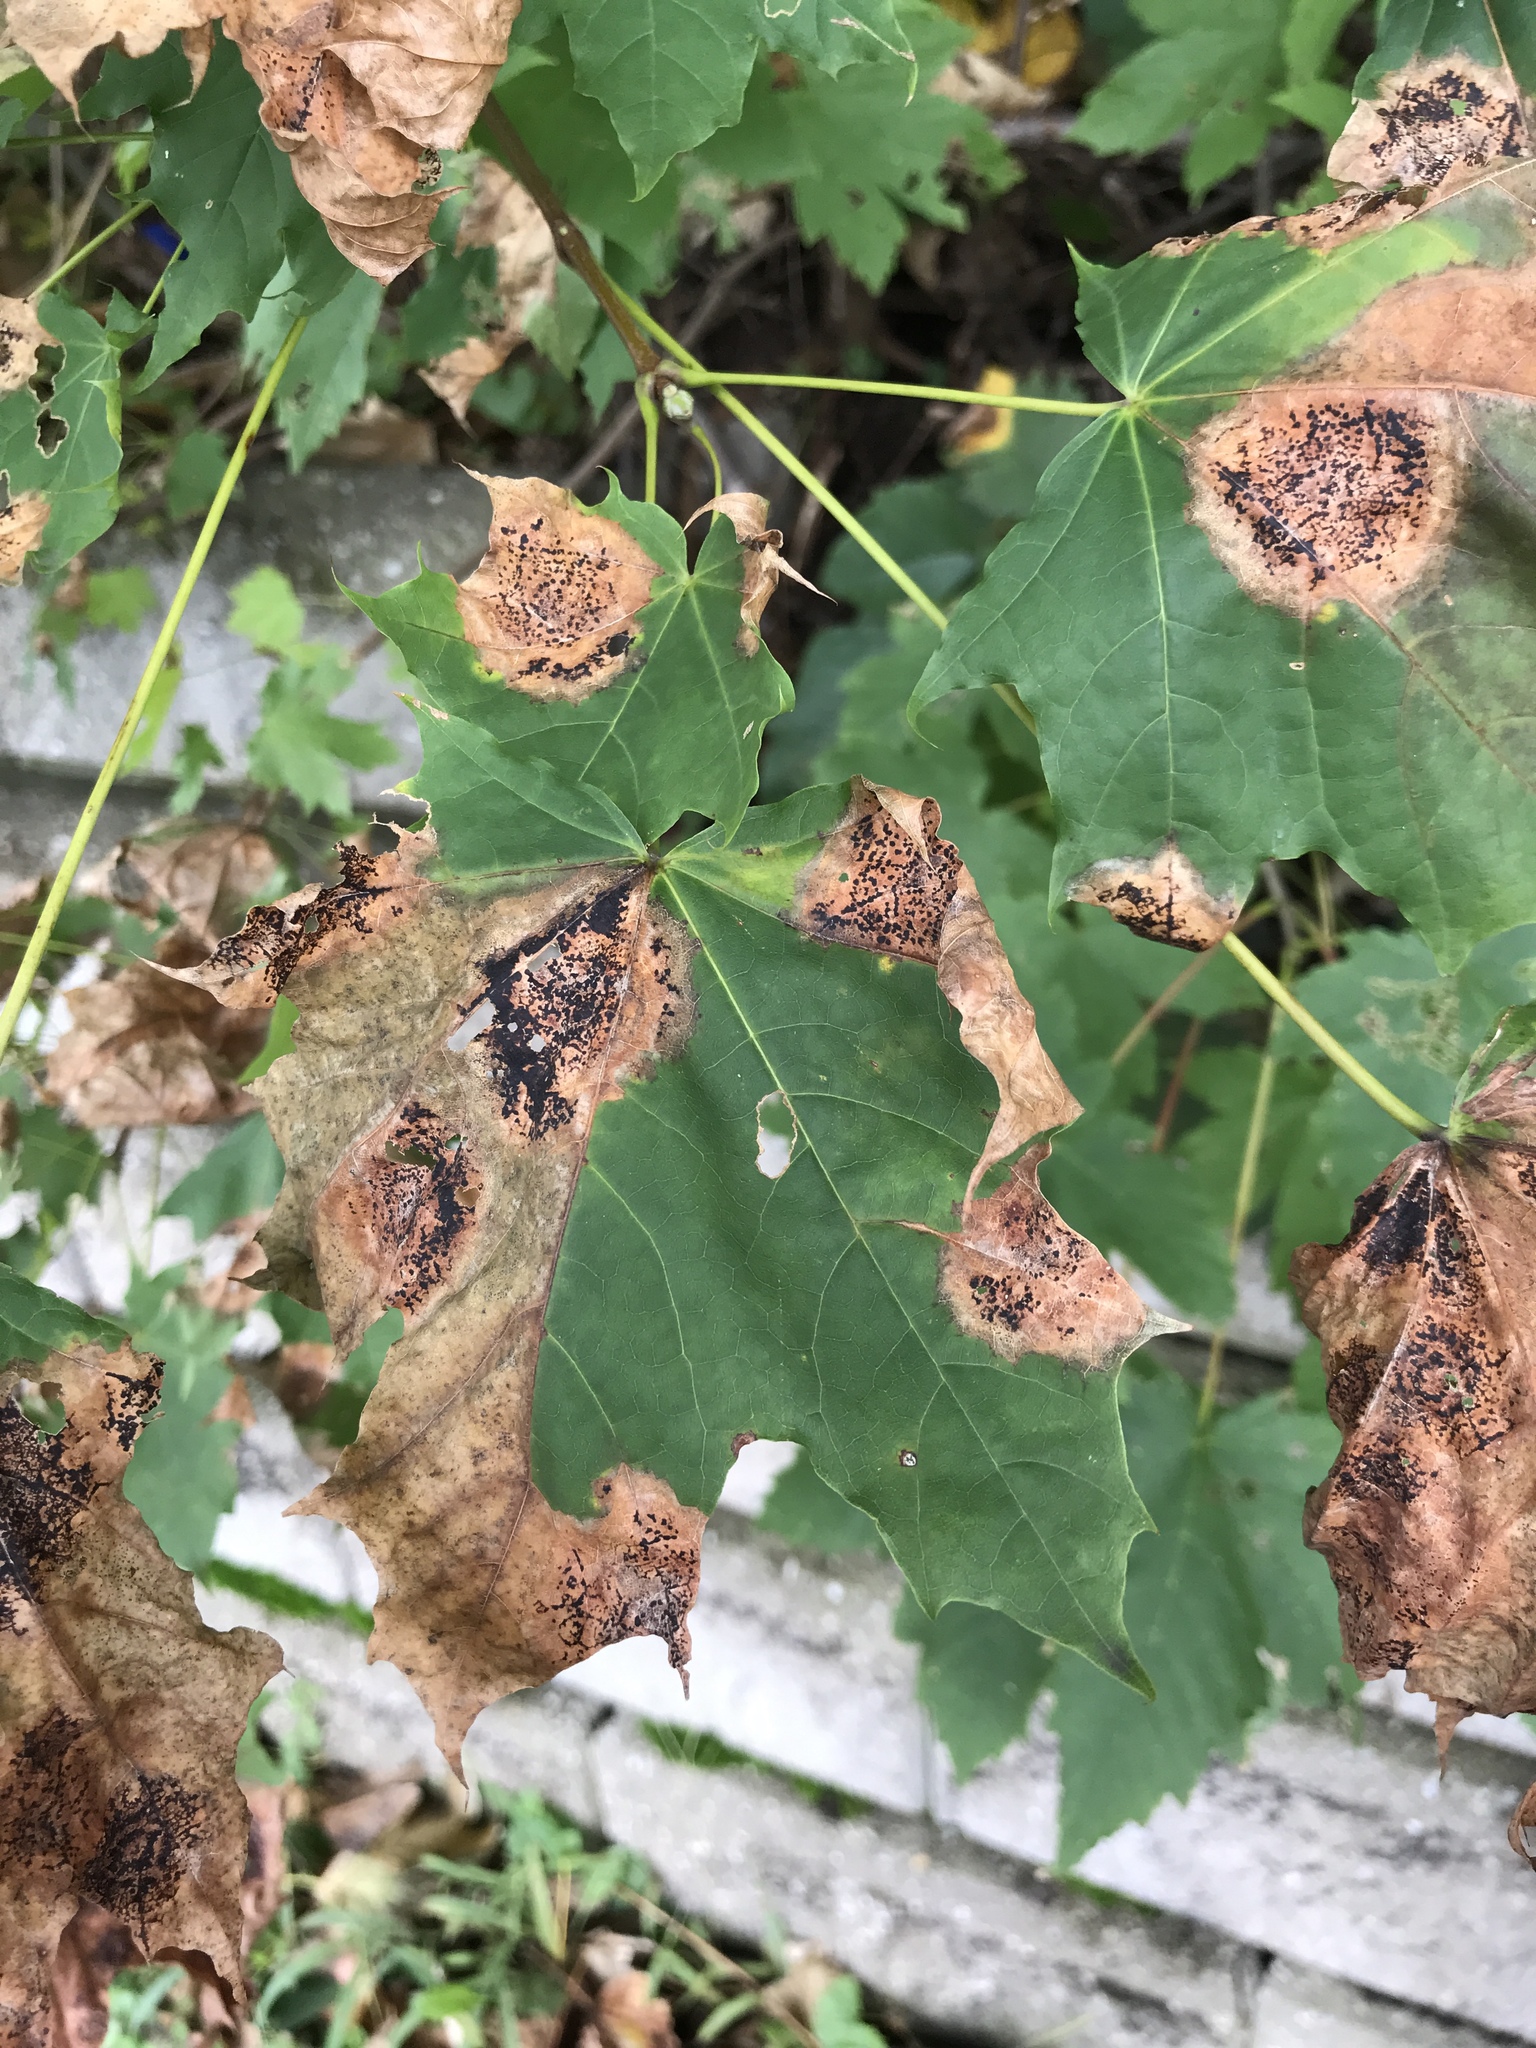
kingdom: Fungi
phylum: Ascomycota
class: Leotiomycetes
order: Rhytismatales
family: Rhytismataceae
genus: Rhytisma
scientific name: Rhytisma acerinum
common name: European tar spot
